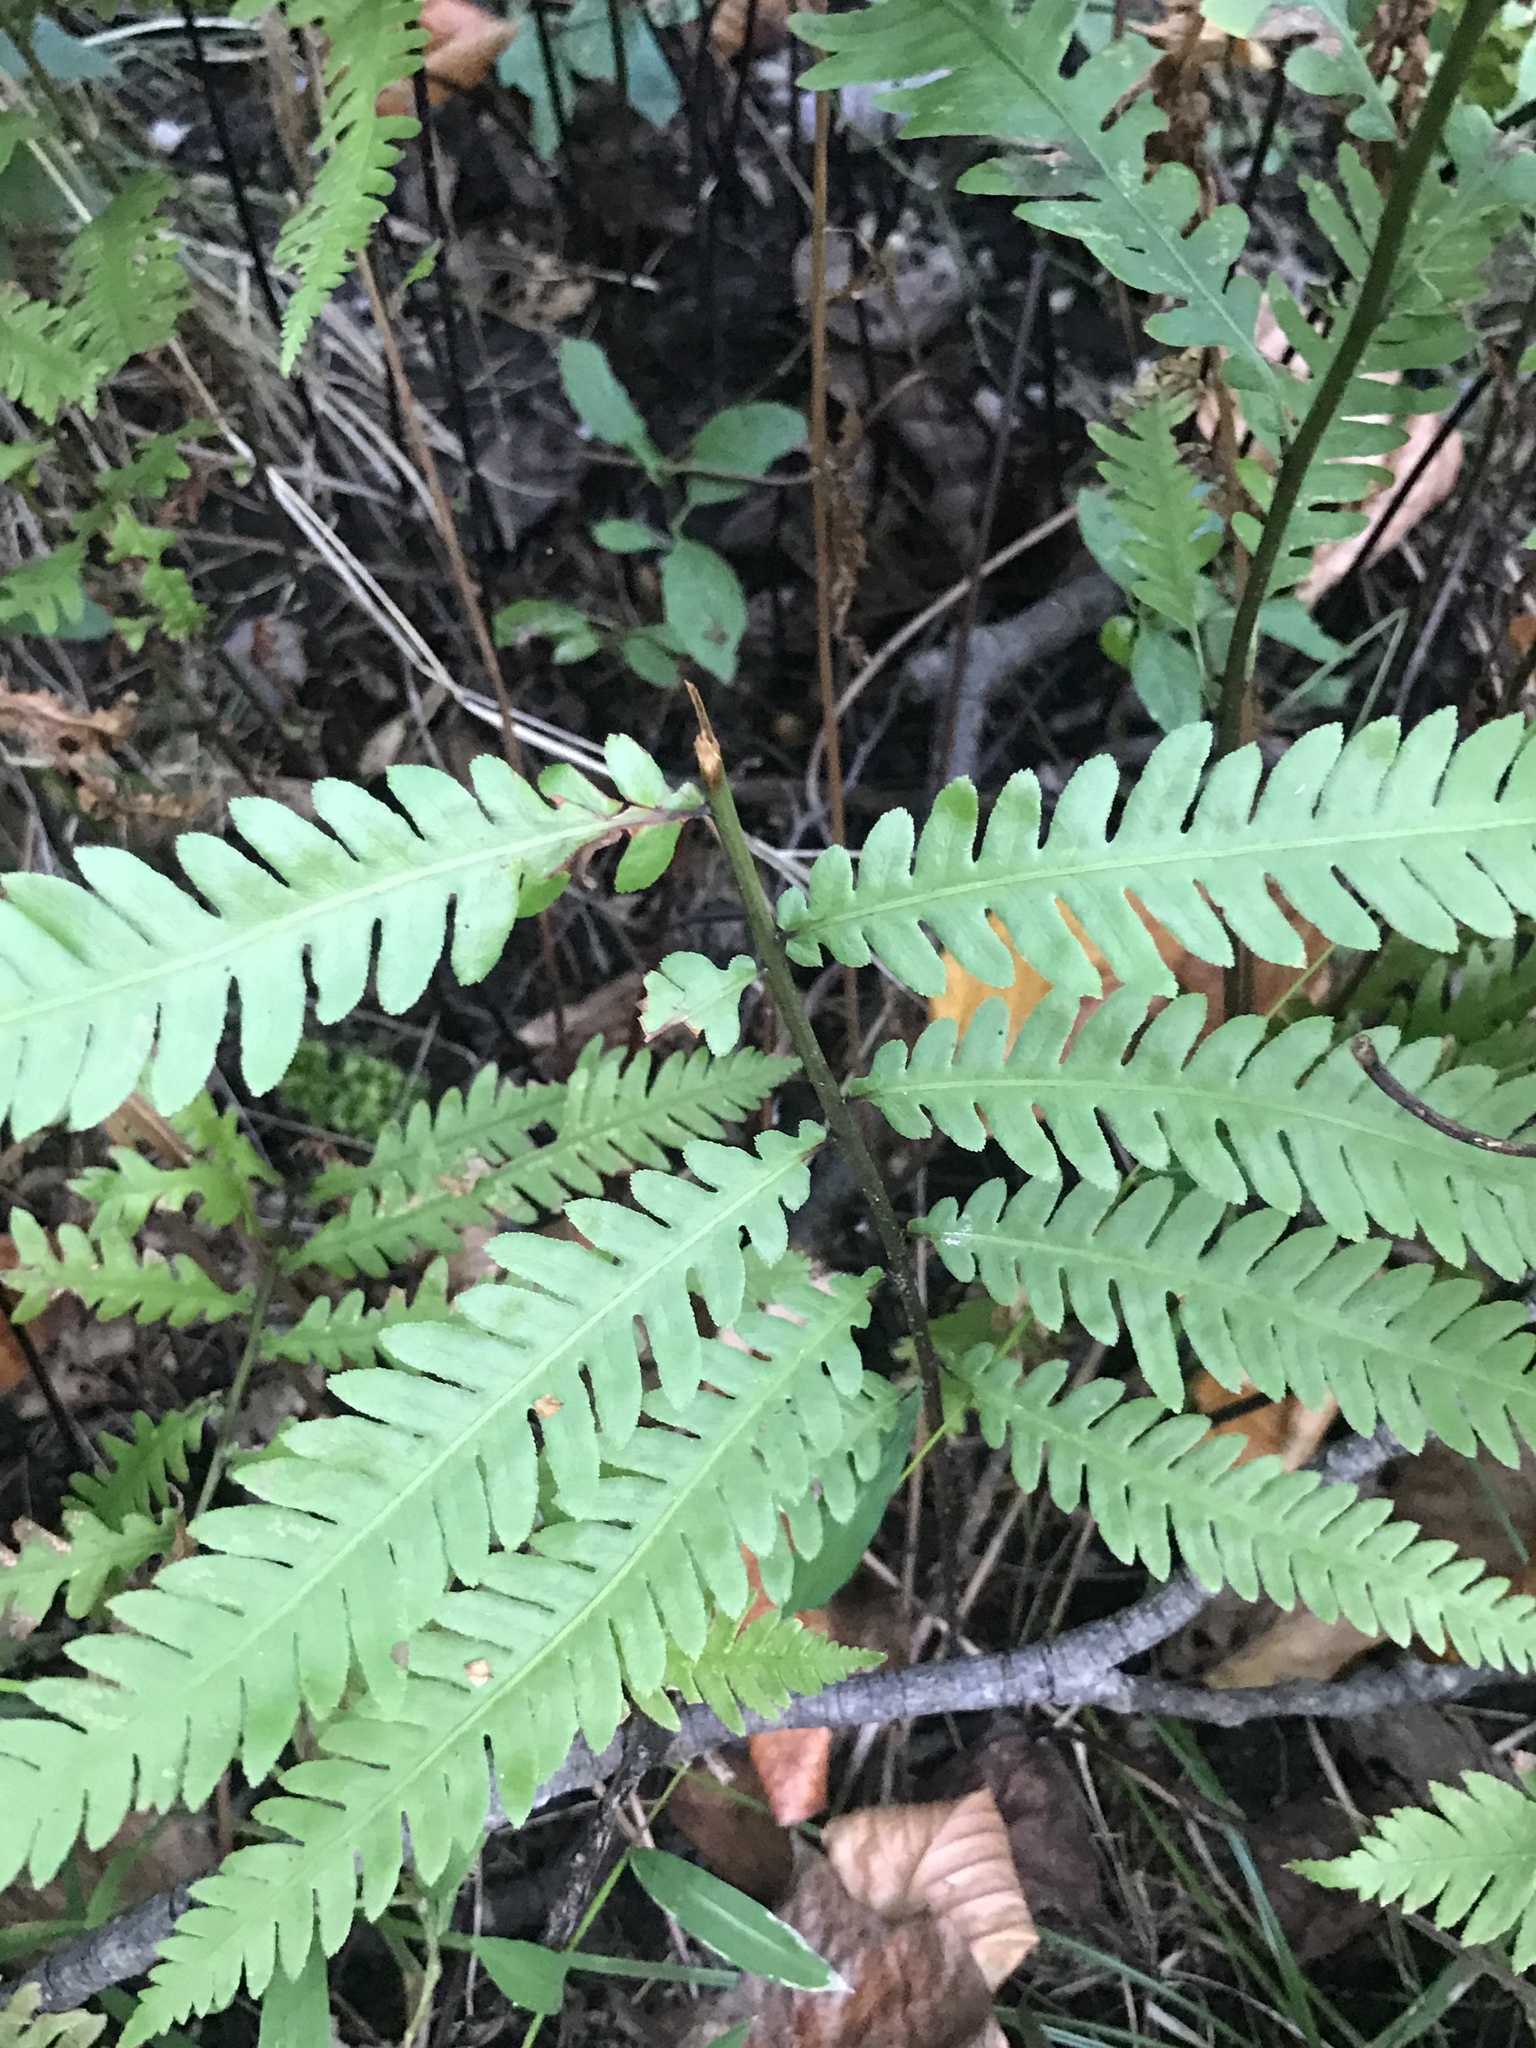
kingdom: Plantae
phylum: Tracheophyta
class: Polypodiopsida
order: Polypodiales
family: Blechnaceae
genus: Anchistea
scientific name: Anchistea virginica
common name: Virginia chain fern
